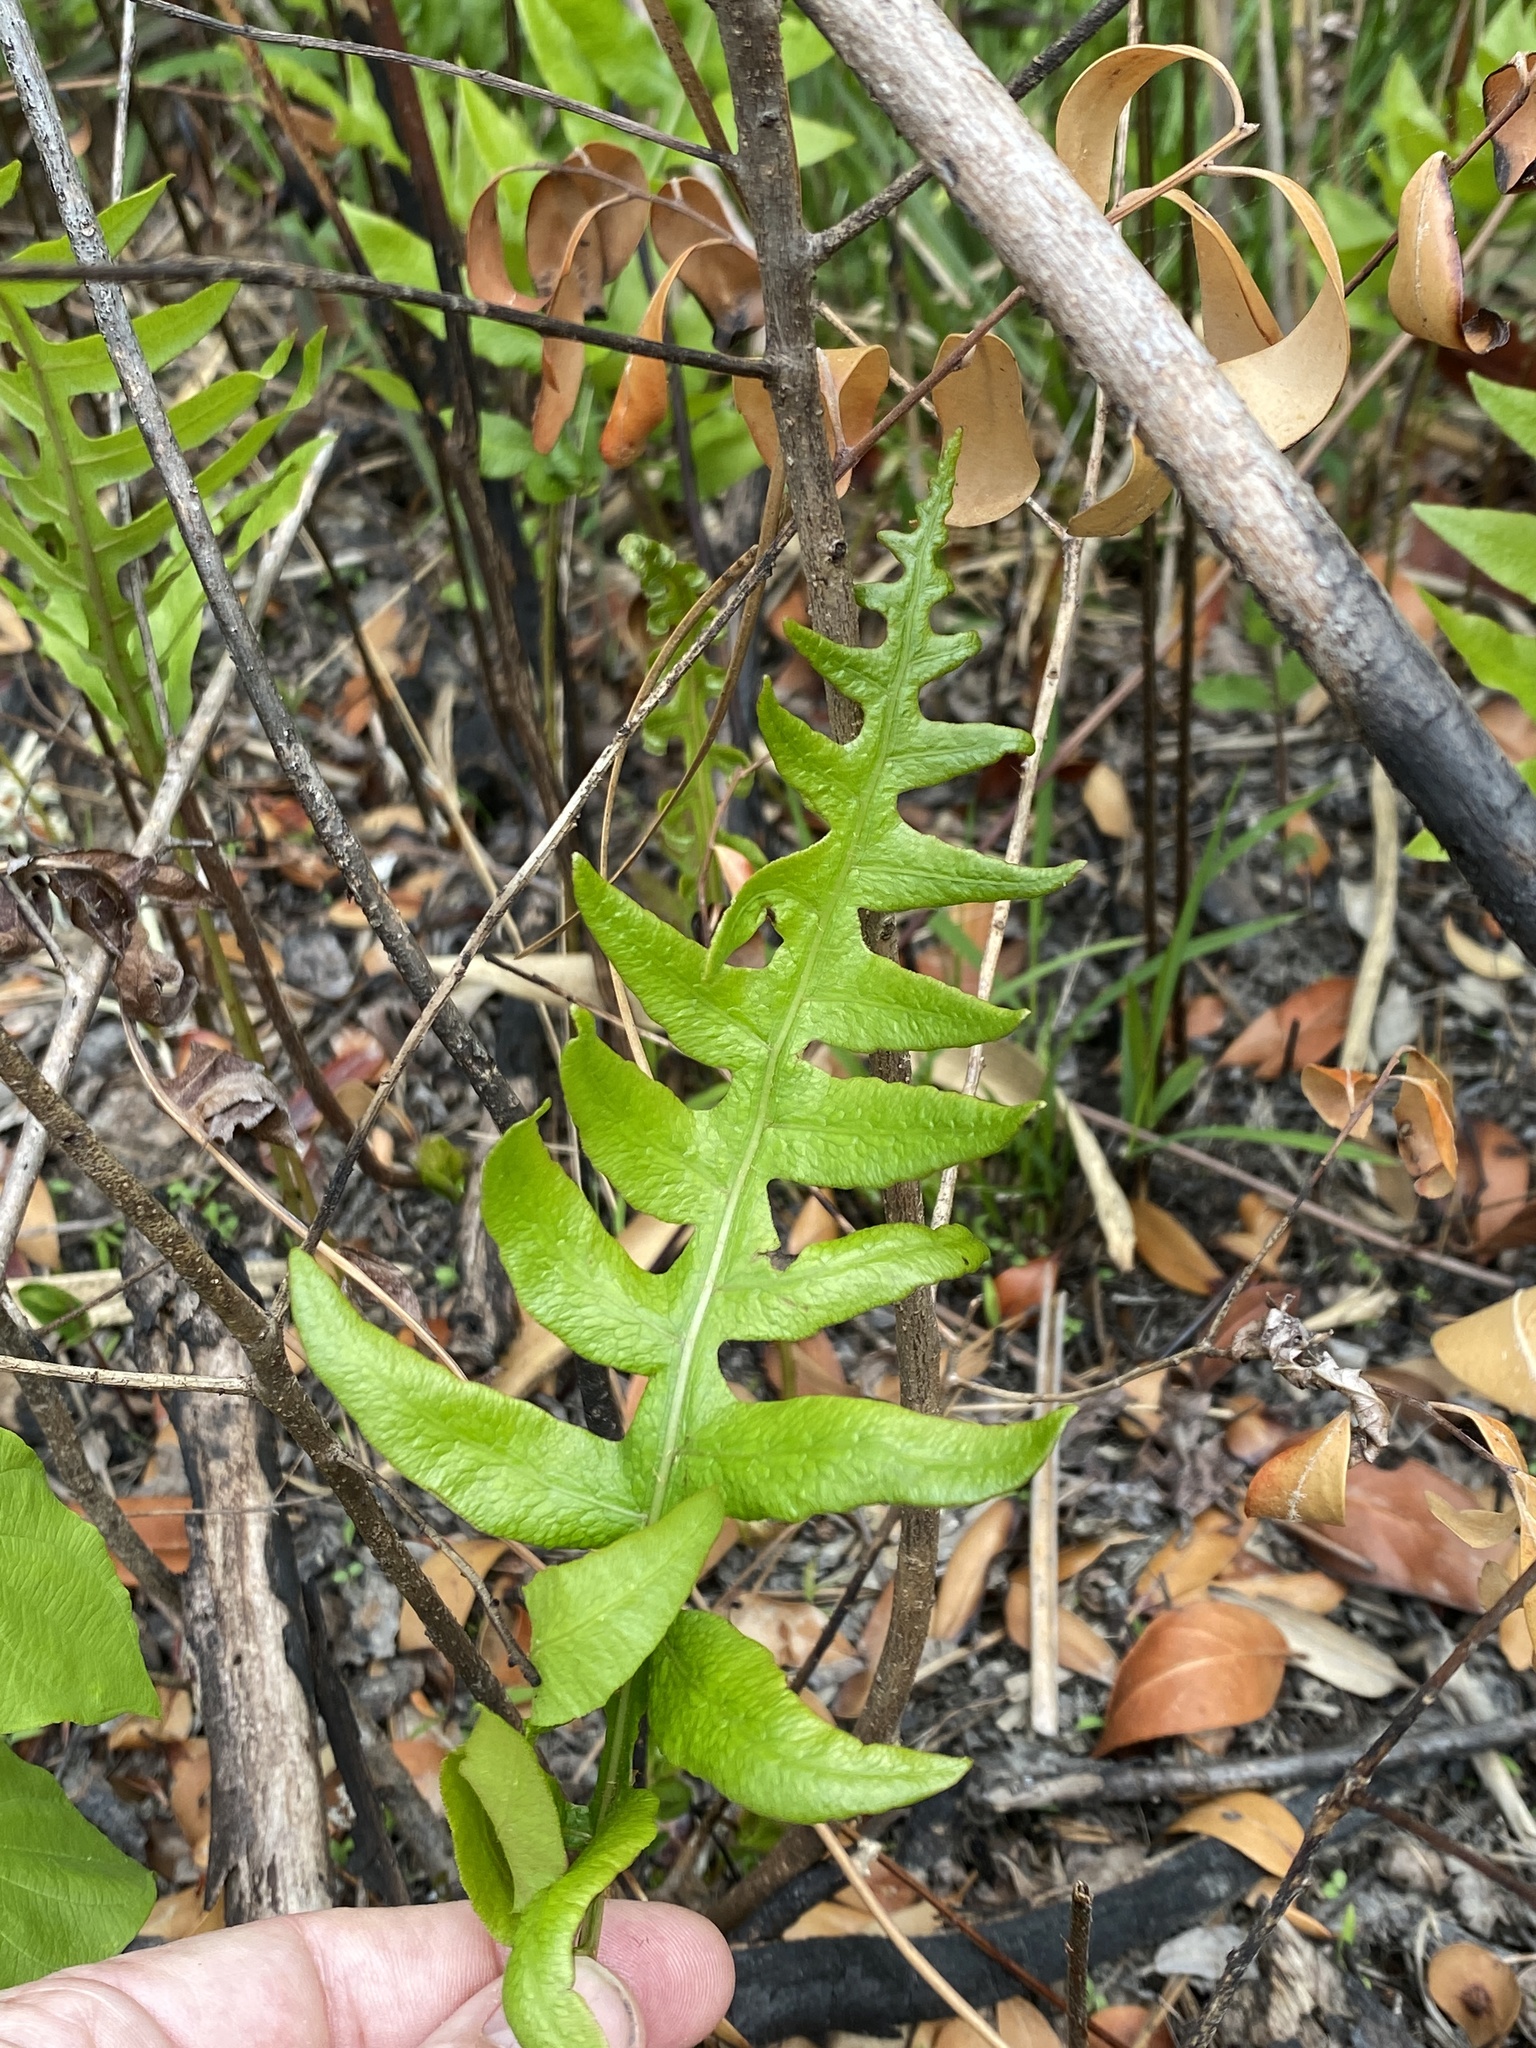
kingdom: Plantae
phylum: Tracheophyta
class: Polypodiopsida
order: Polypodiales
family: Blechnaceae
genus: Lorinseria
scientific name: Lorinseria areolata
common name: Dwarf chain fern
